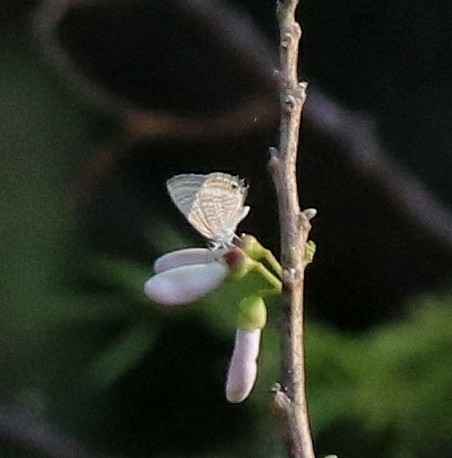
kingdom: Animalia
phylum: Arthropoda
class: Insecta
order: Lepidoptera
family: Lycaenidae
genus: Lampides
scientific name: Lampides boeticus
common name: Long-tailed blue
